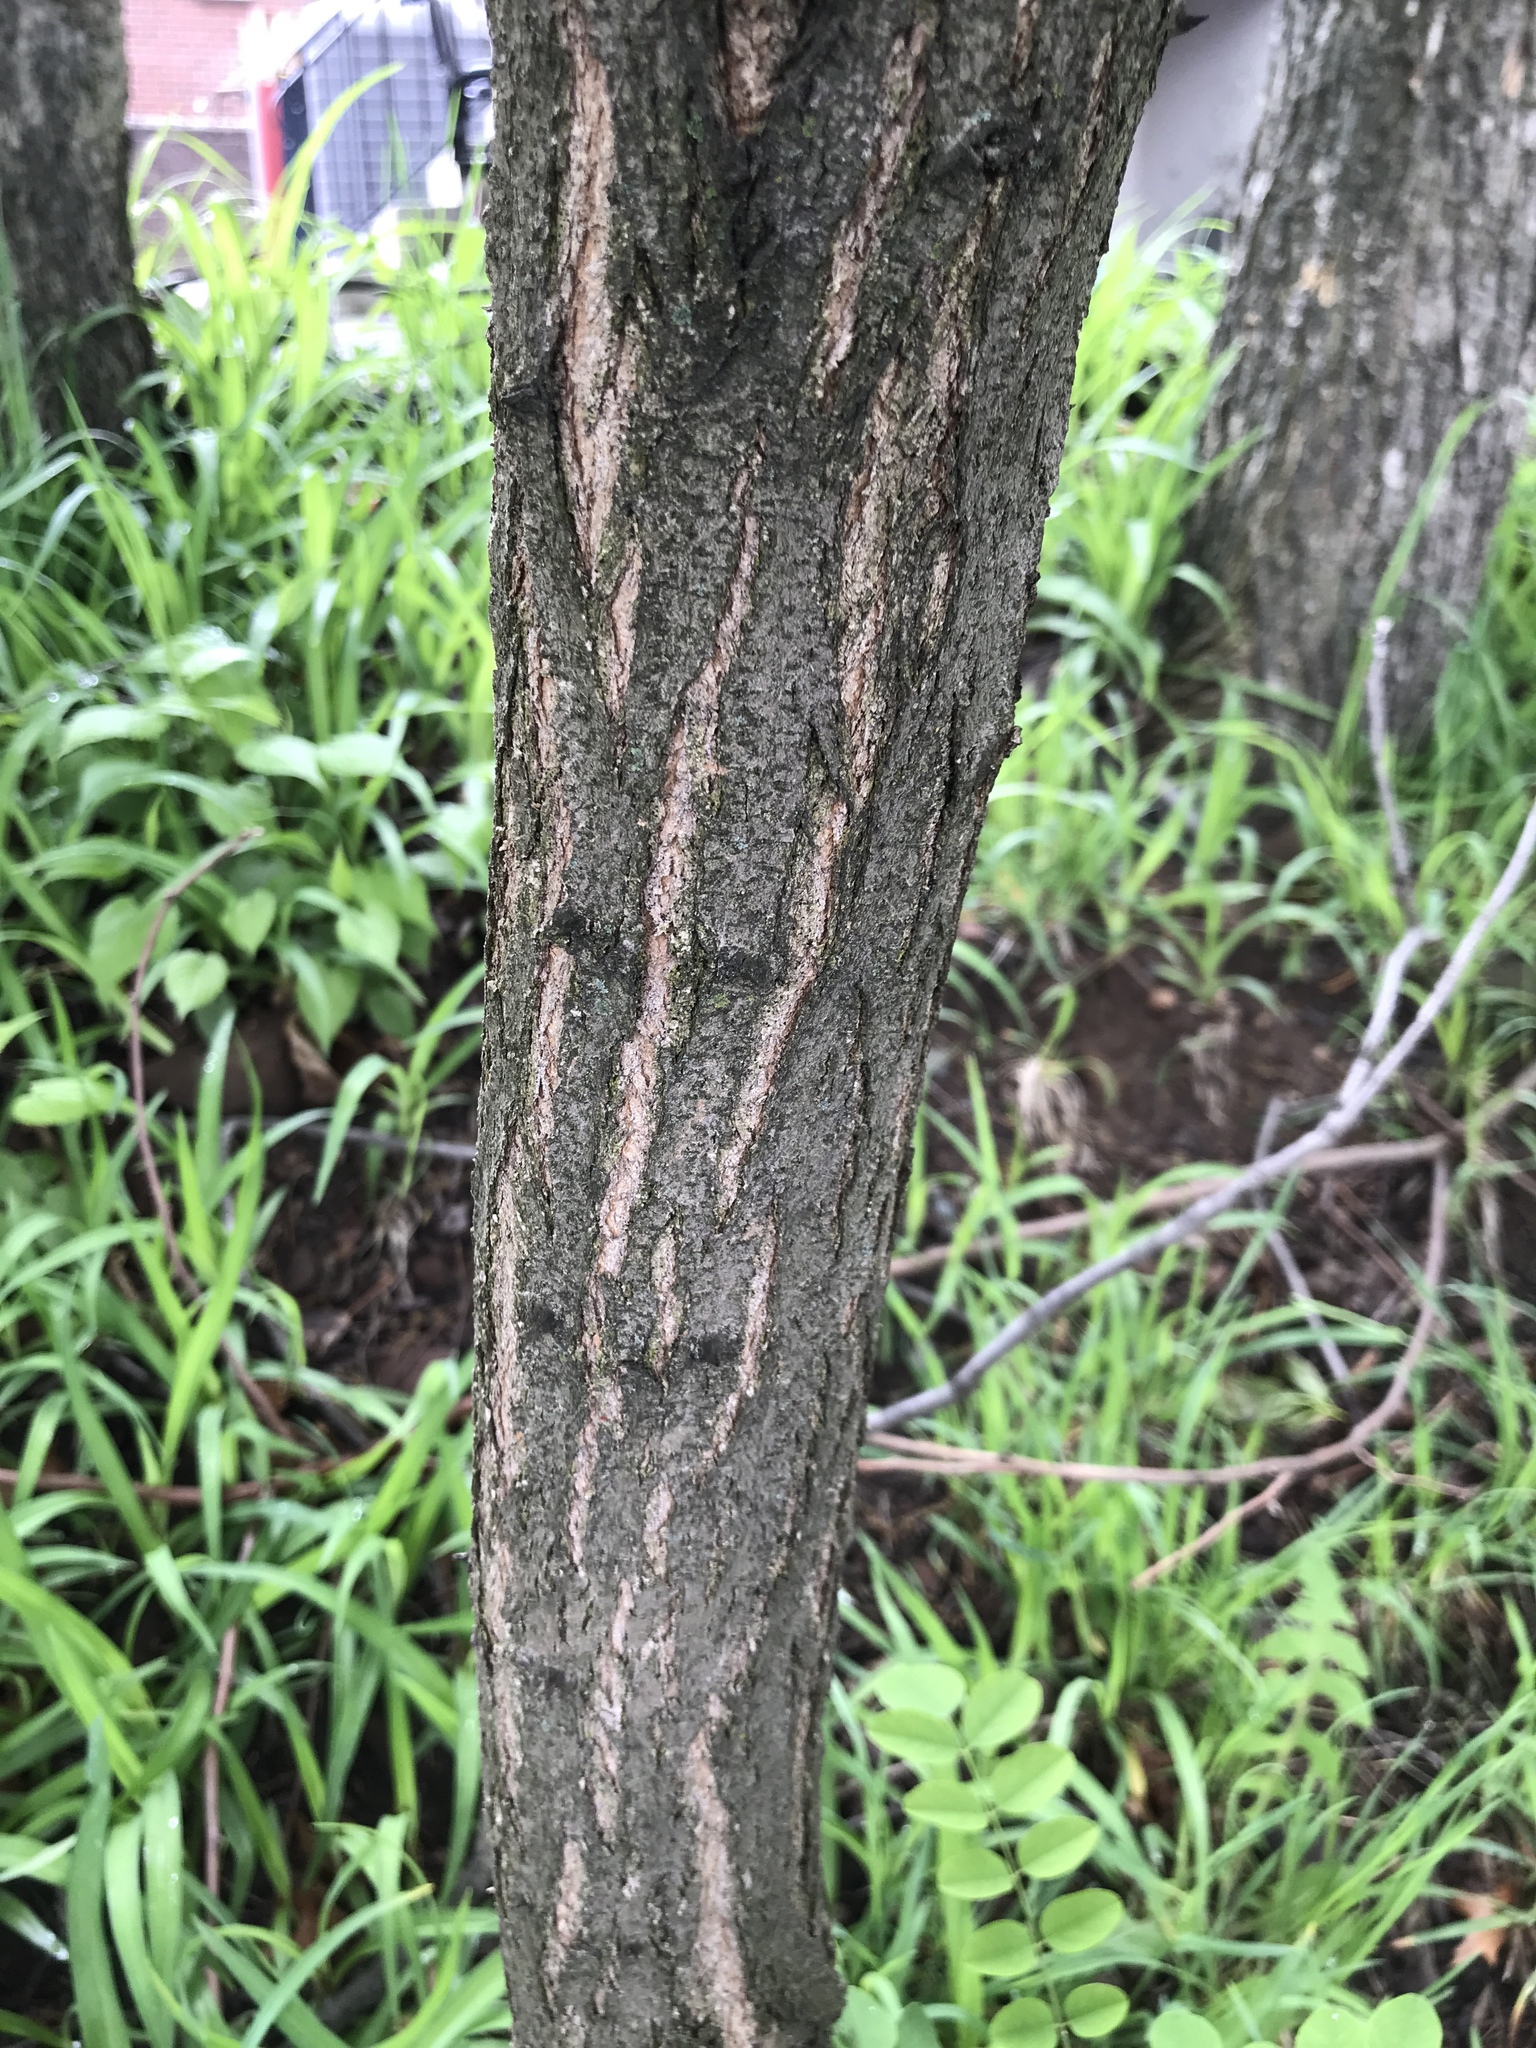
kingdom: Plantae
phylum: Tracheophyta
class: Magnoliopsida
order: Fabales
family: Fabaceae
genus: Robinia
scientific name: Robinia pseudoacacia
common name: Black locust
